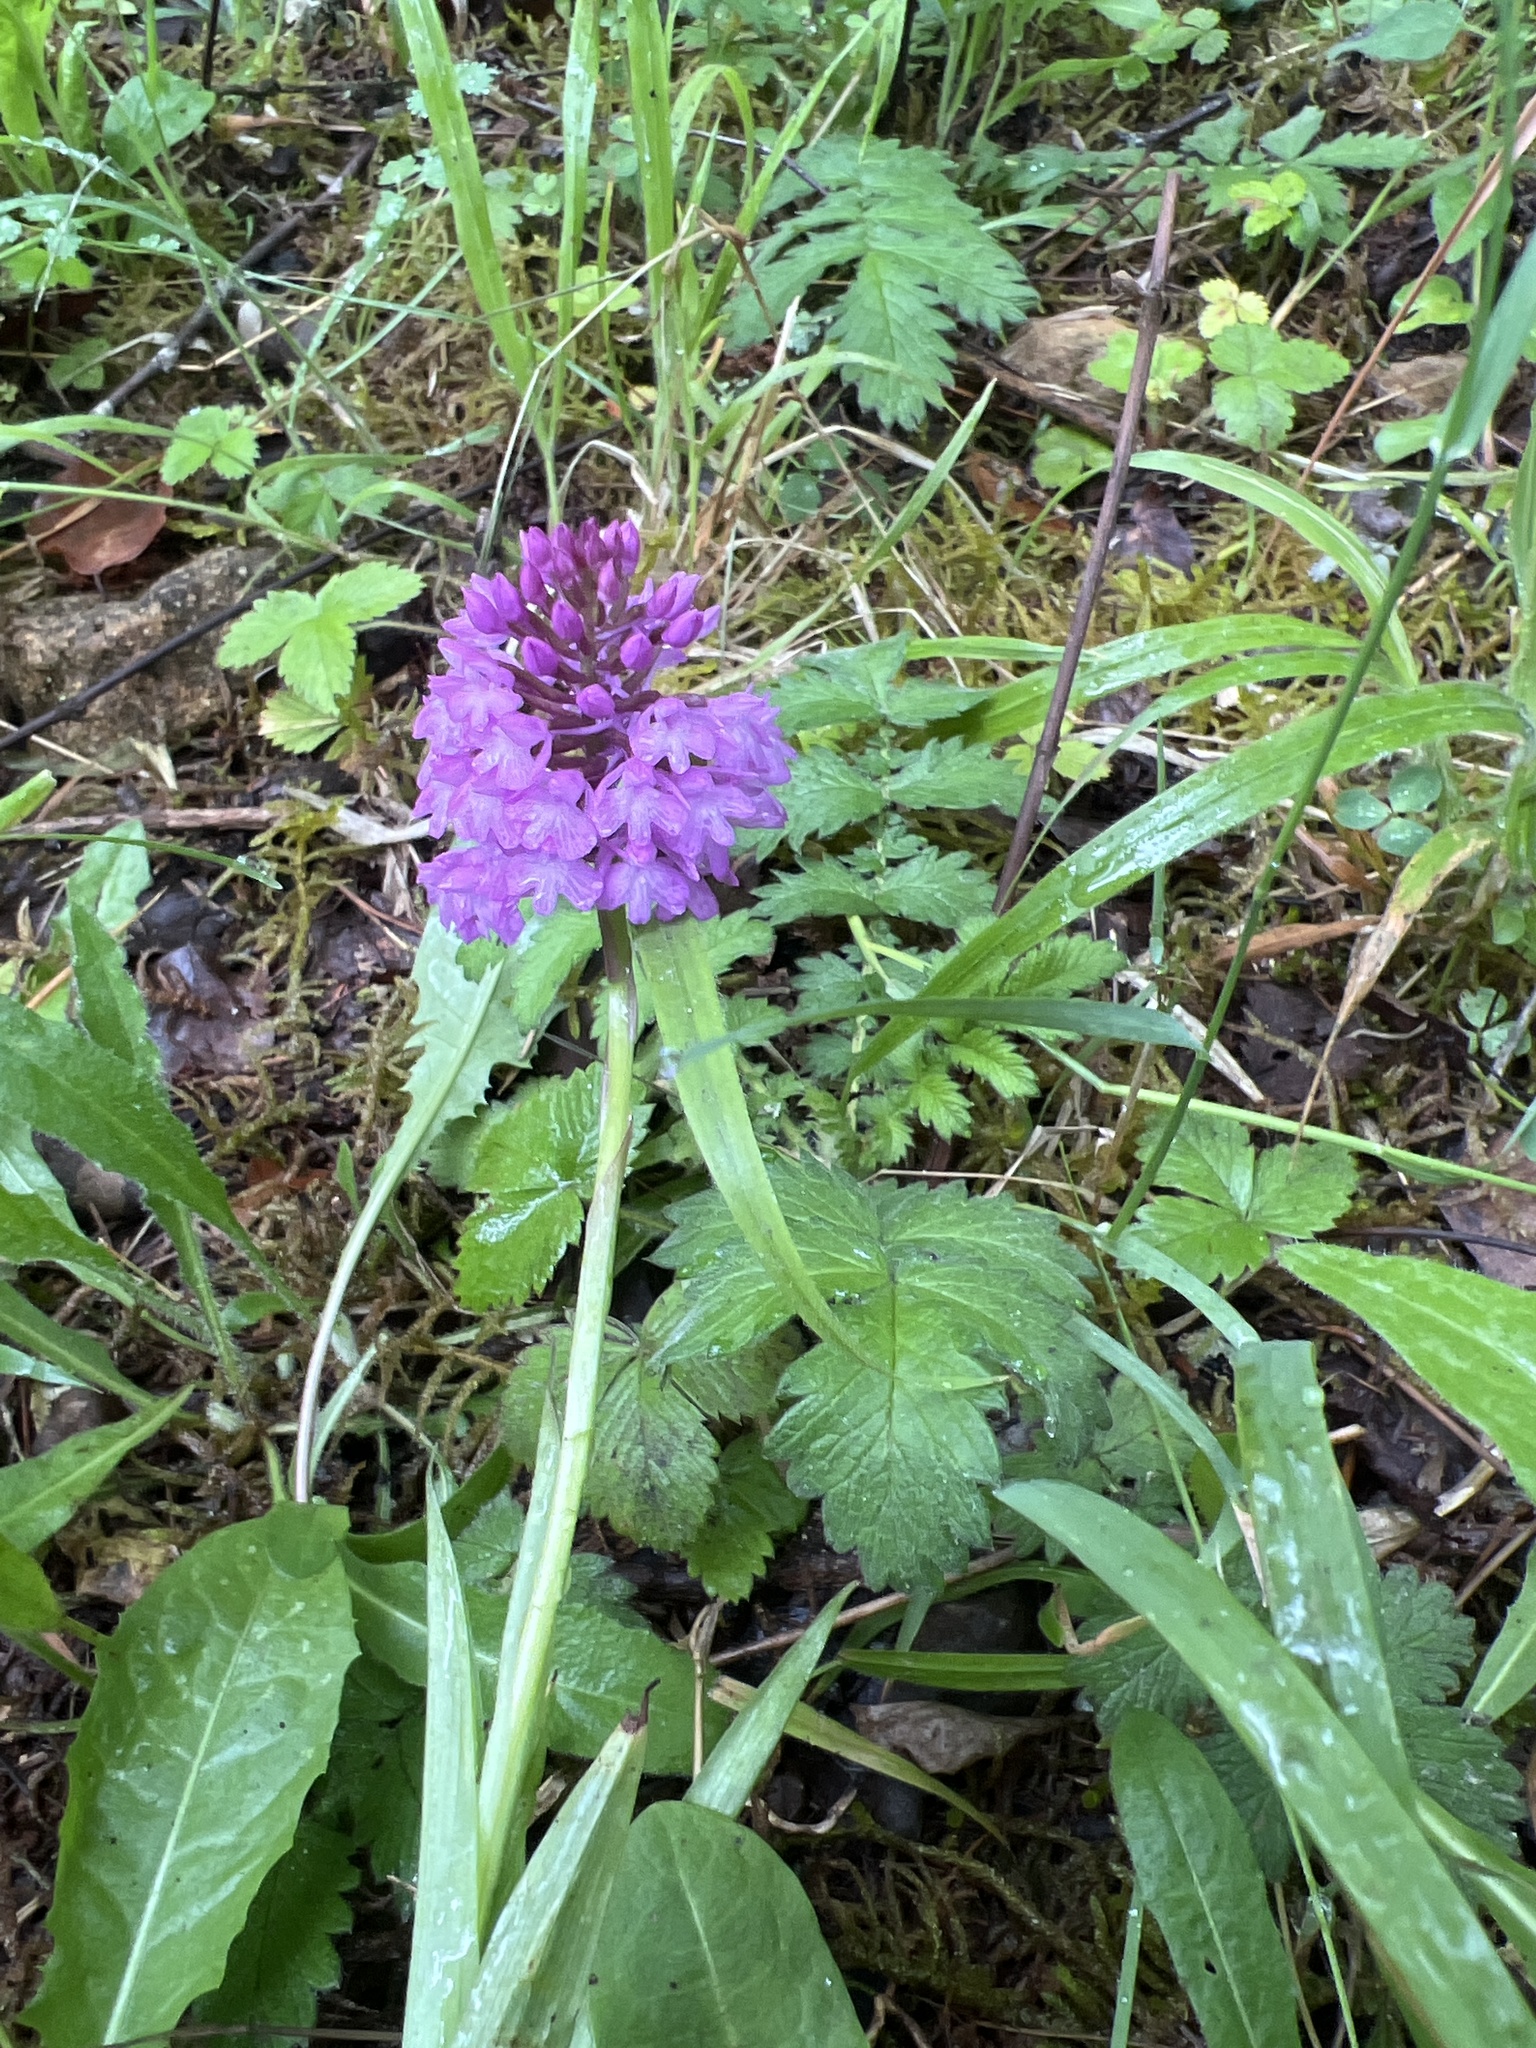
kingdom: Plantae
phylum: Tracheophyta
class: Liliopsida
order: Asparagales
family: Orchidaceae
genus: Anacamptis
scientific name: Anacamptis pyramidalis
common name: Pyramidal orchid
